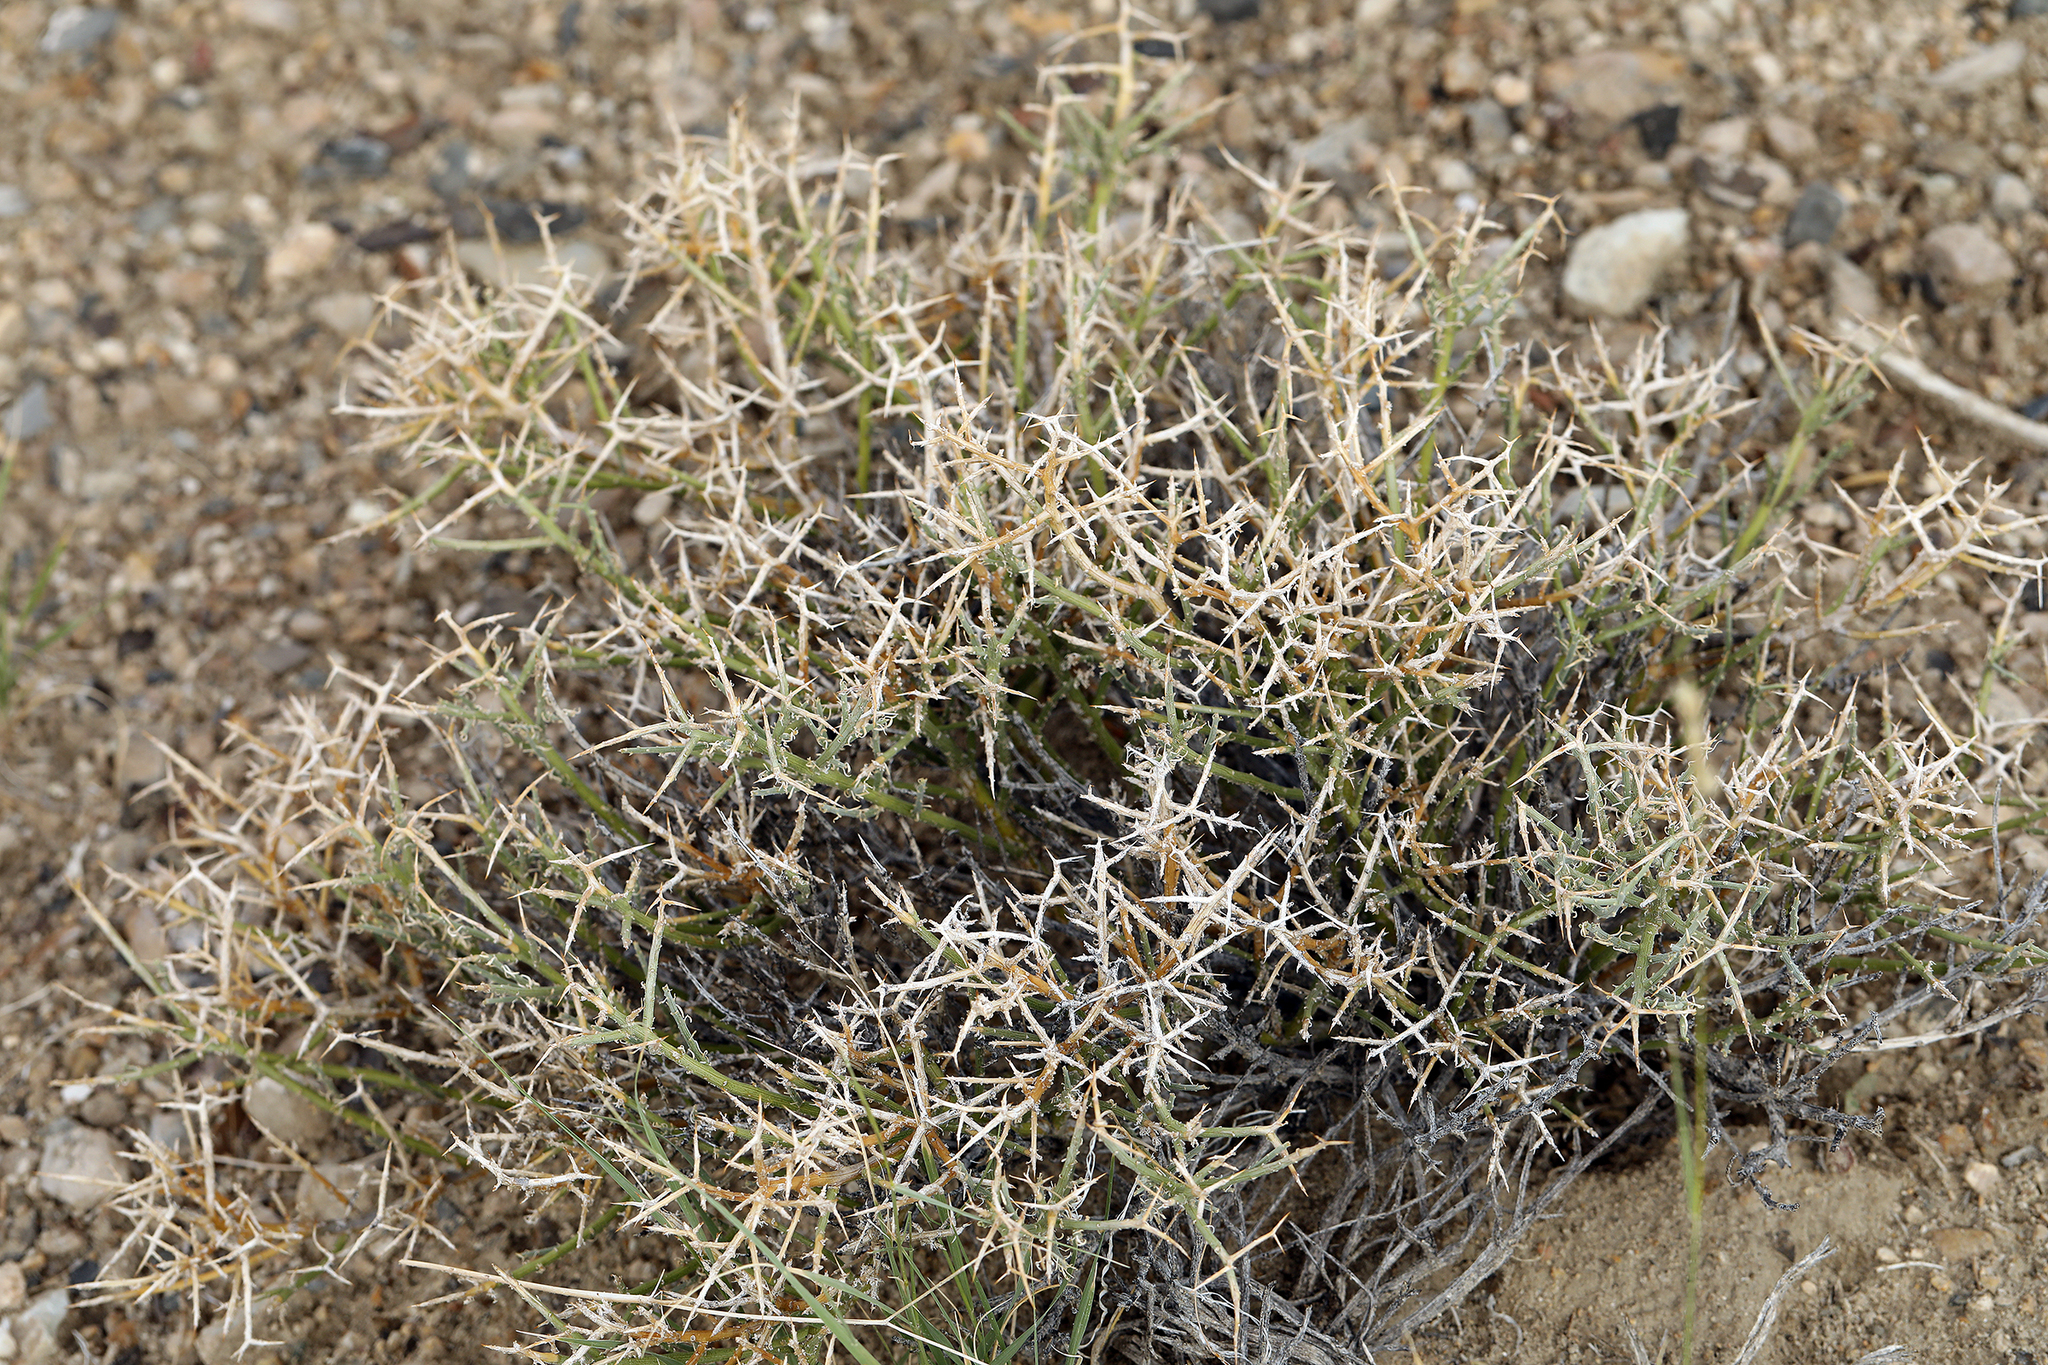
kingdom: Plantae
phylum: Tracheophyta
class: Magnoliopsida
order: Lamiales
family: Oleaceae
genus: Menodora
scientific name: Menodora spinescens
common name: Spiny menodora
